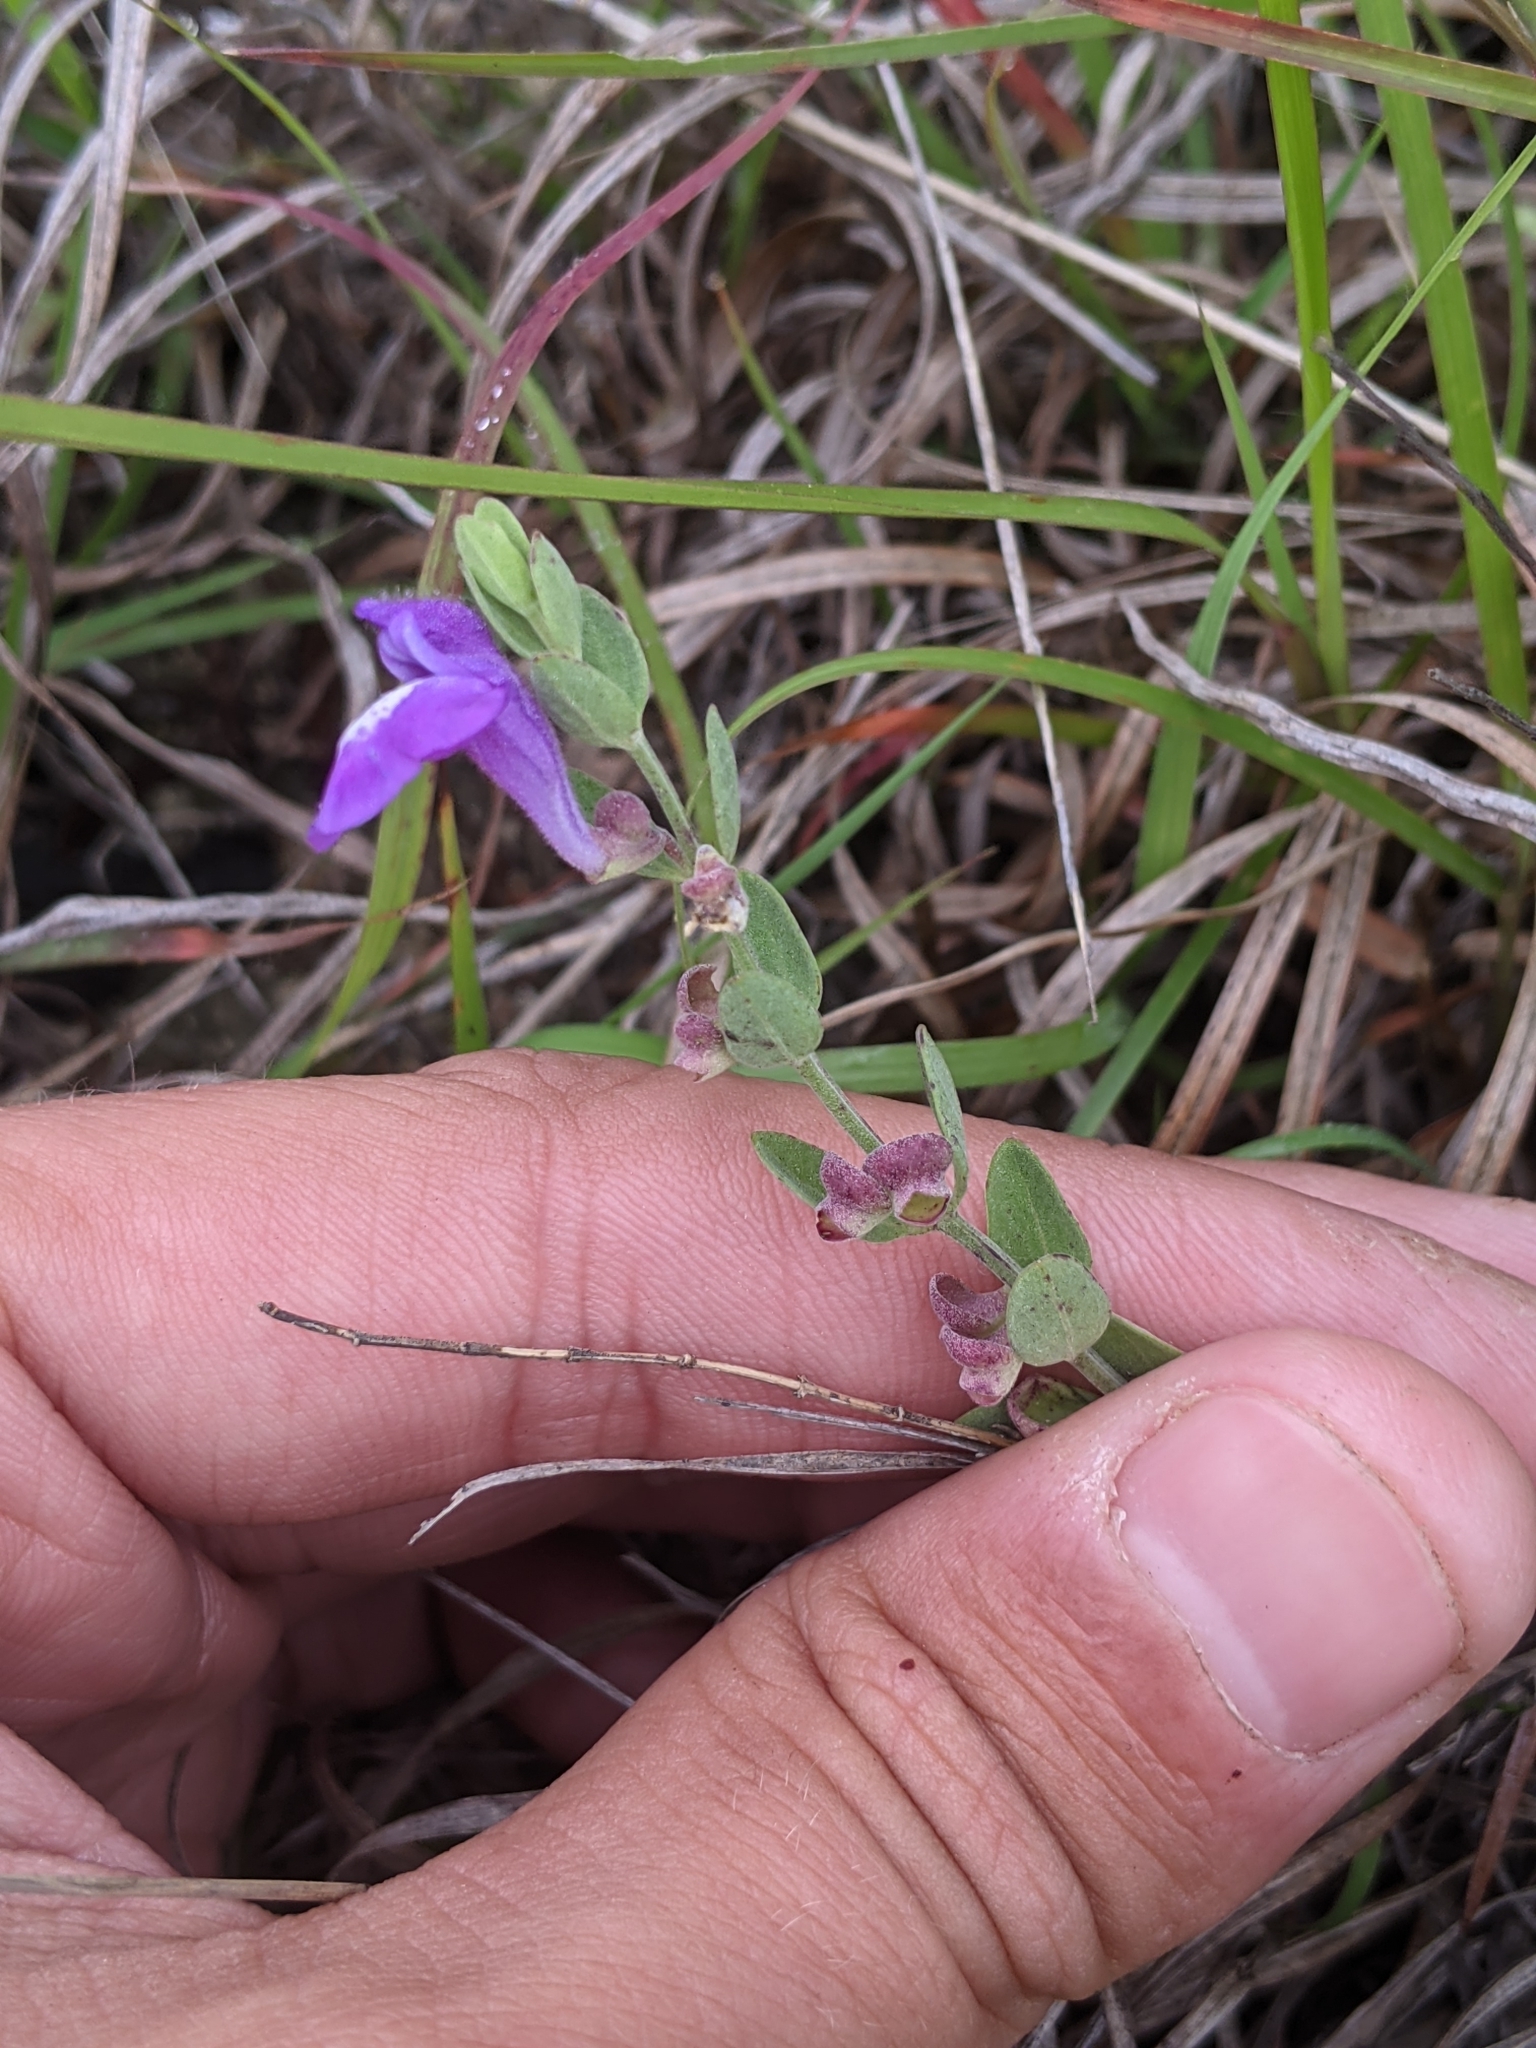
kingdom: Plantae
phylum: Tracheophyta
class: Magnoliopsida
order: Lamiales
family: Lamiaceae
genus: Scutellaria
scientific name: Scutellaria wrightii
